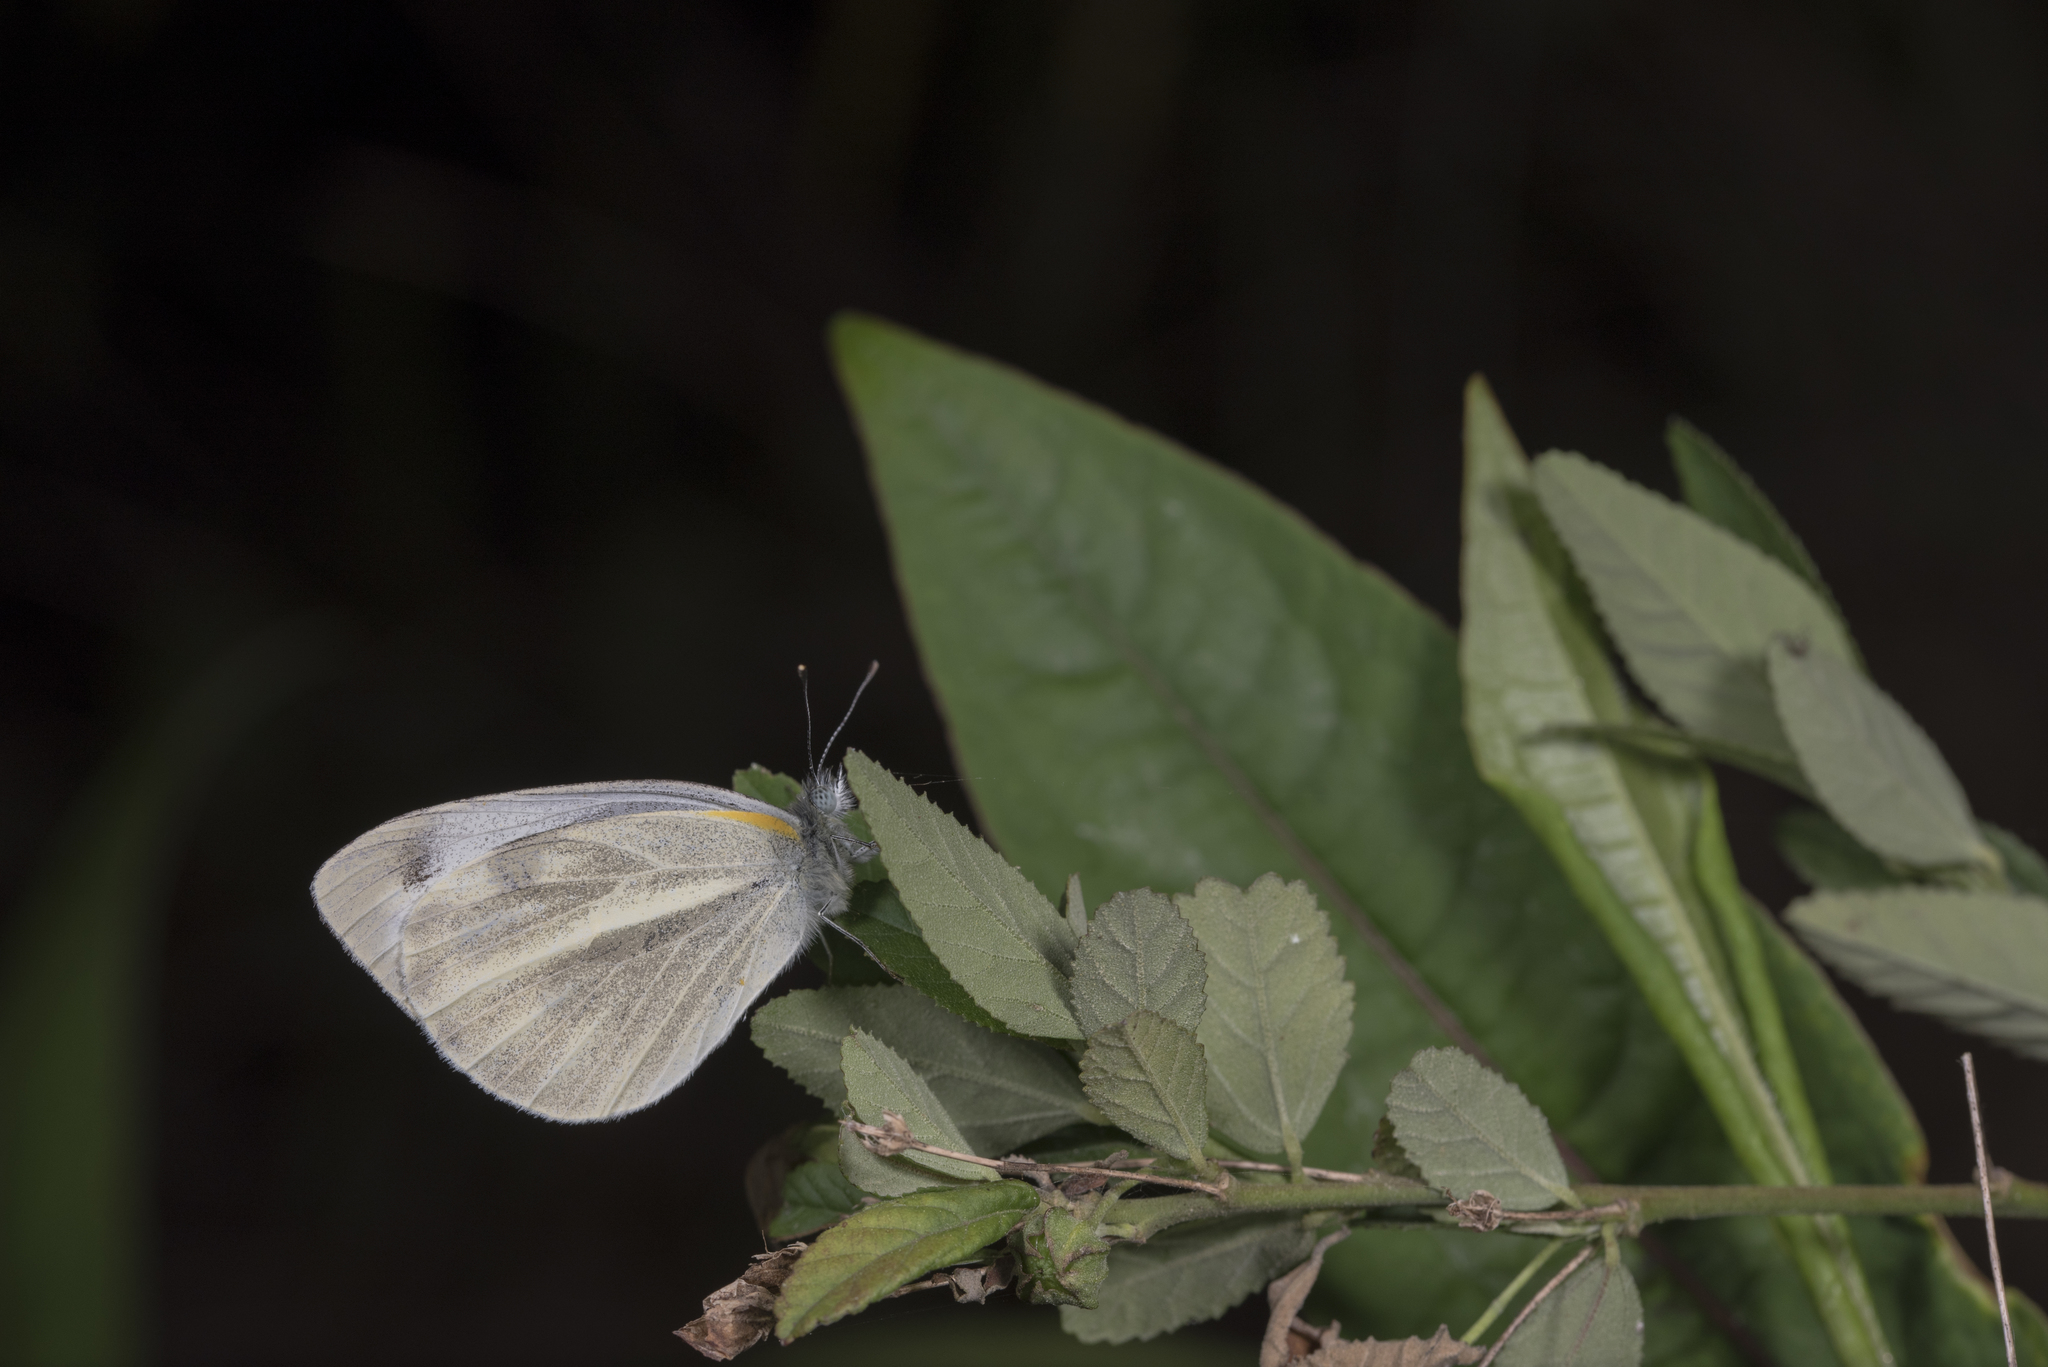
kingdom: Animalia
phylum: Arthropoda
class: Insecta
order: Lepidoptera
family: Pieridae
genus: Pieris
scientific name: Pieris canidia
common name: Indian cabbage white
